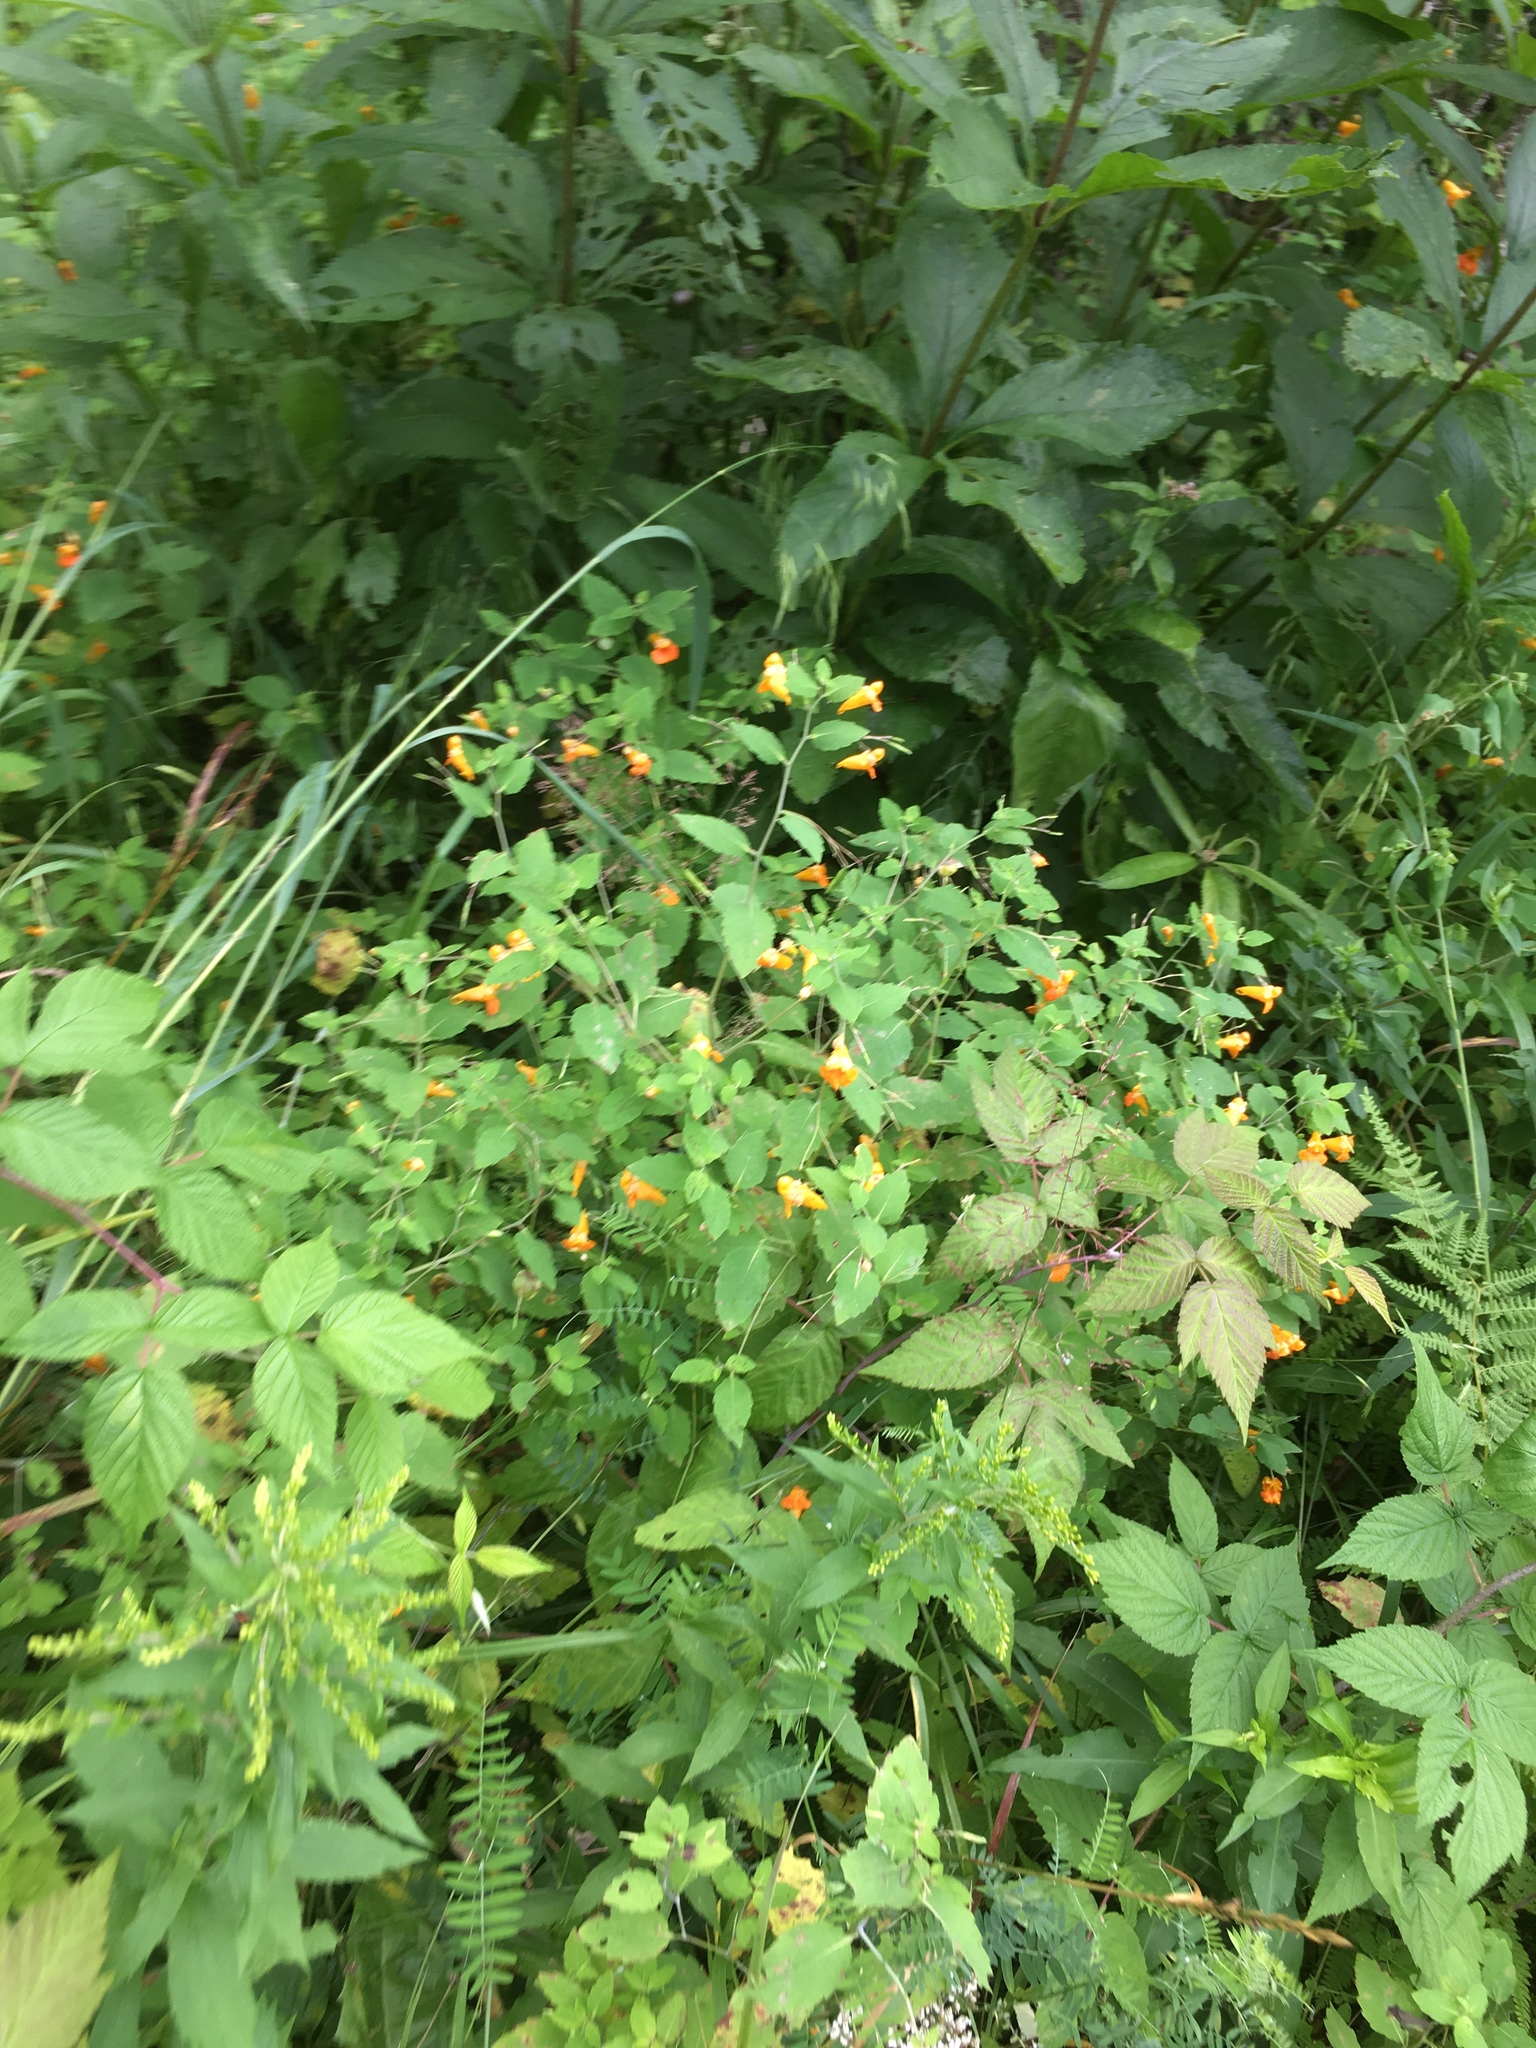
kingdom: Plantae
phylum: Tracheophyta
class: Magnoliopsida
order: Ericales
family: Balsaminaceae
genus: Impatiens
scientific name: Impatiens capensis
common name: Orange balsam
